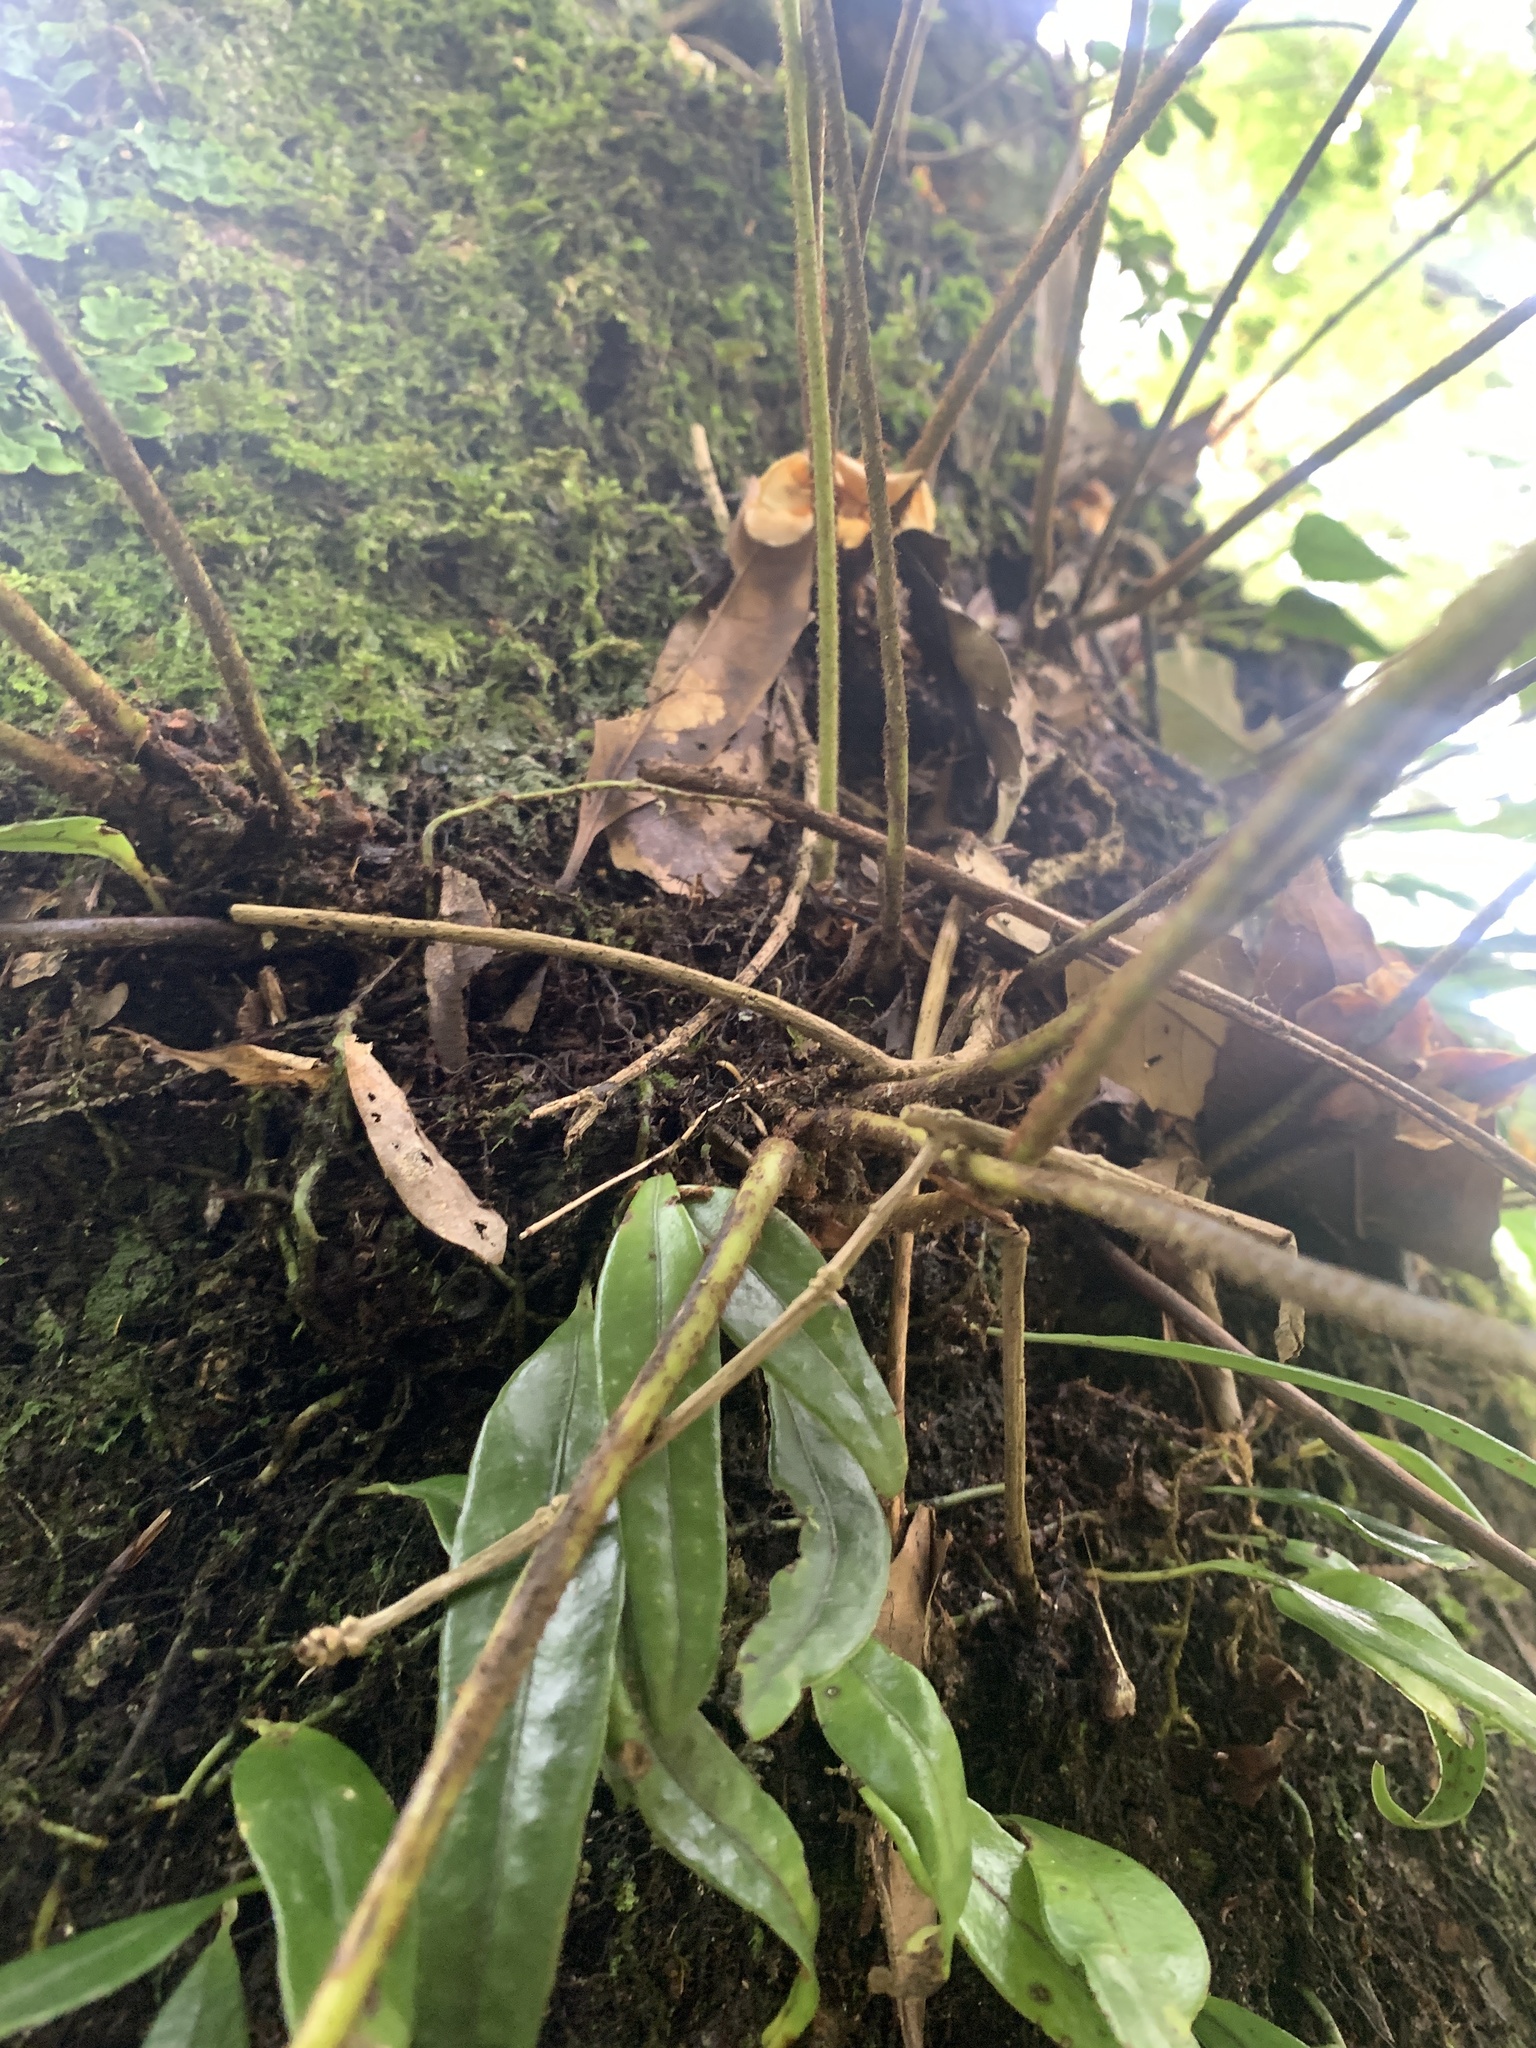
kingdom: Plantae
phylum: Tracheophyta
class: Polypodiopsida
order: Polypodiales
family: Polypodiaceae
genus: Pyrrosia
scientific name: Pyrrosia polydactyla
